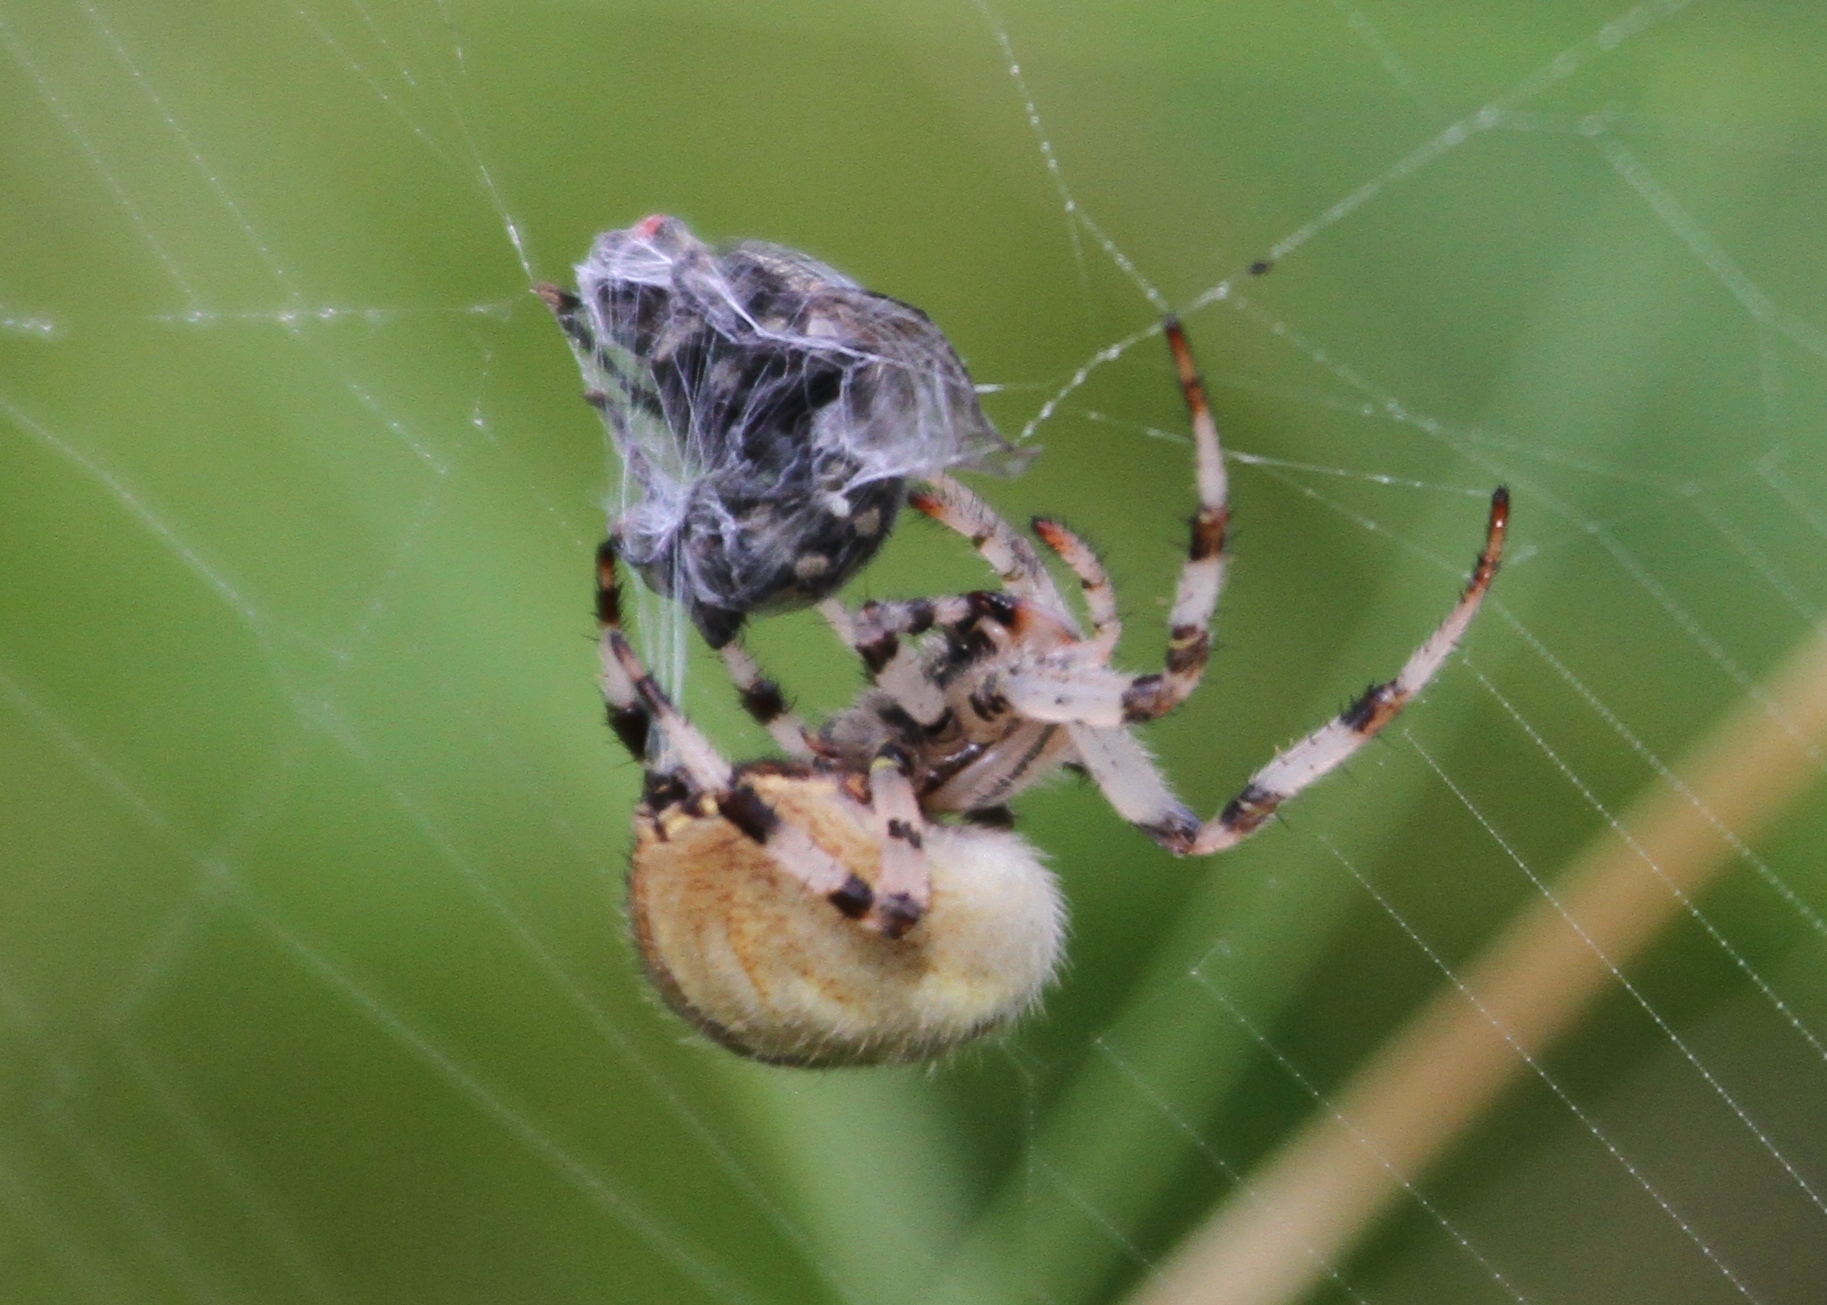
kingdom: Animalia
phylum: Arthropoda
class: Arachnida
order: Araneae
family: Araneidae
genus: Araneus
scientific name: Araneus quadratus
